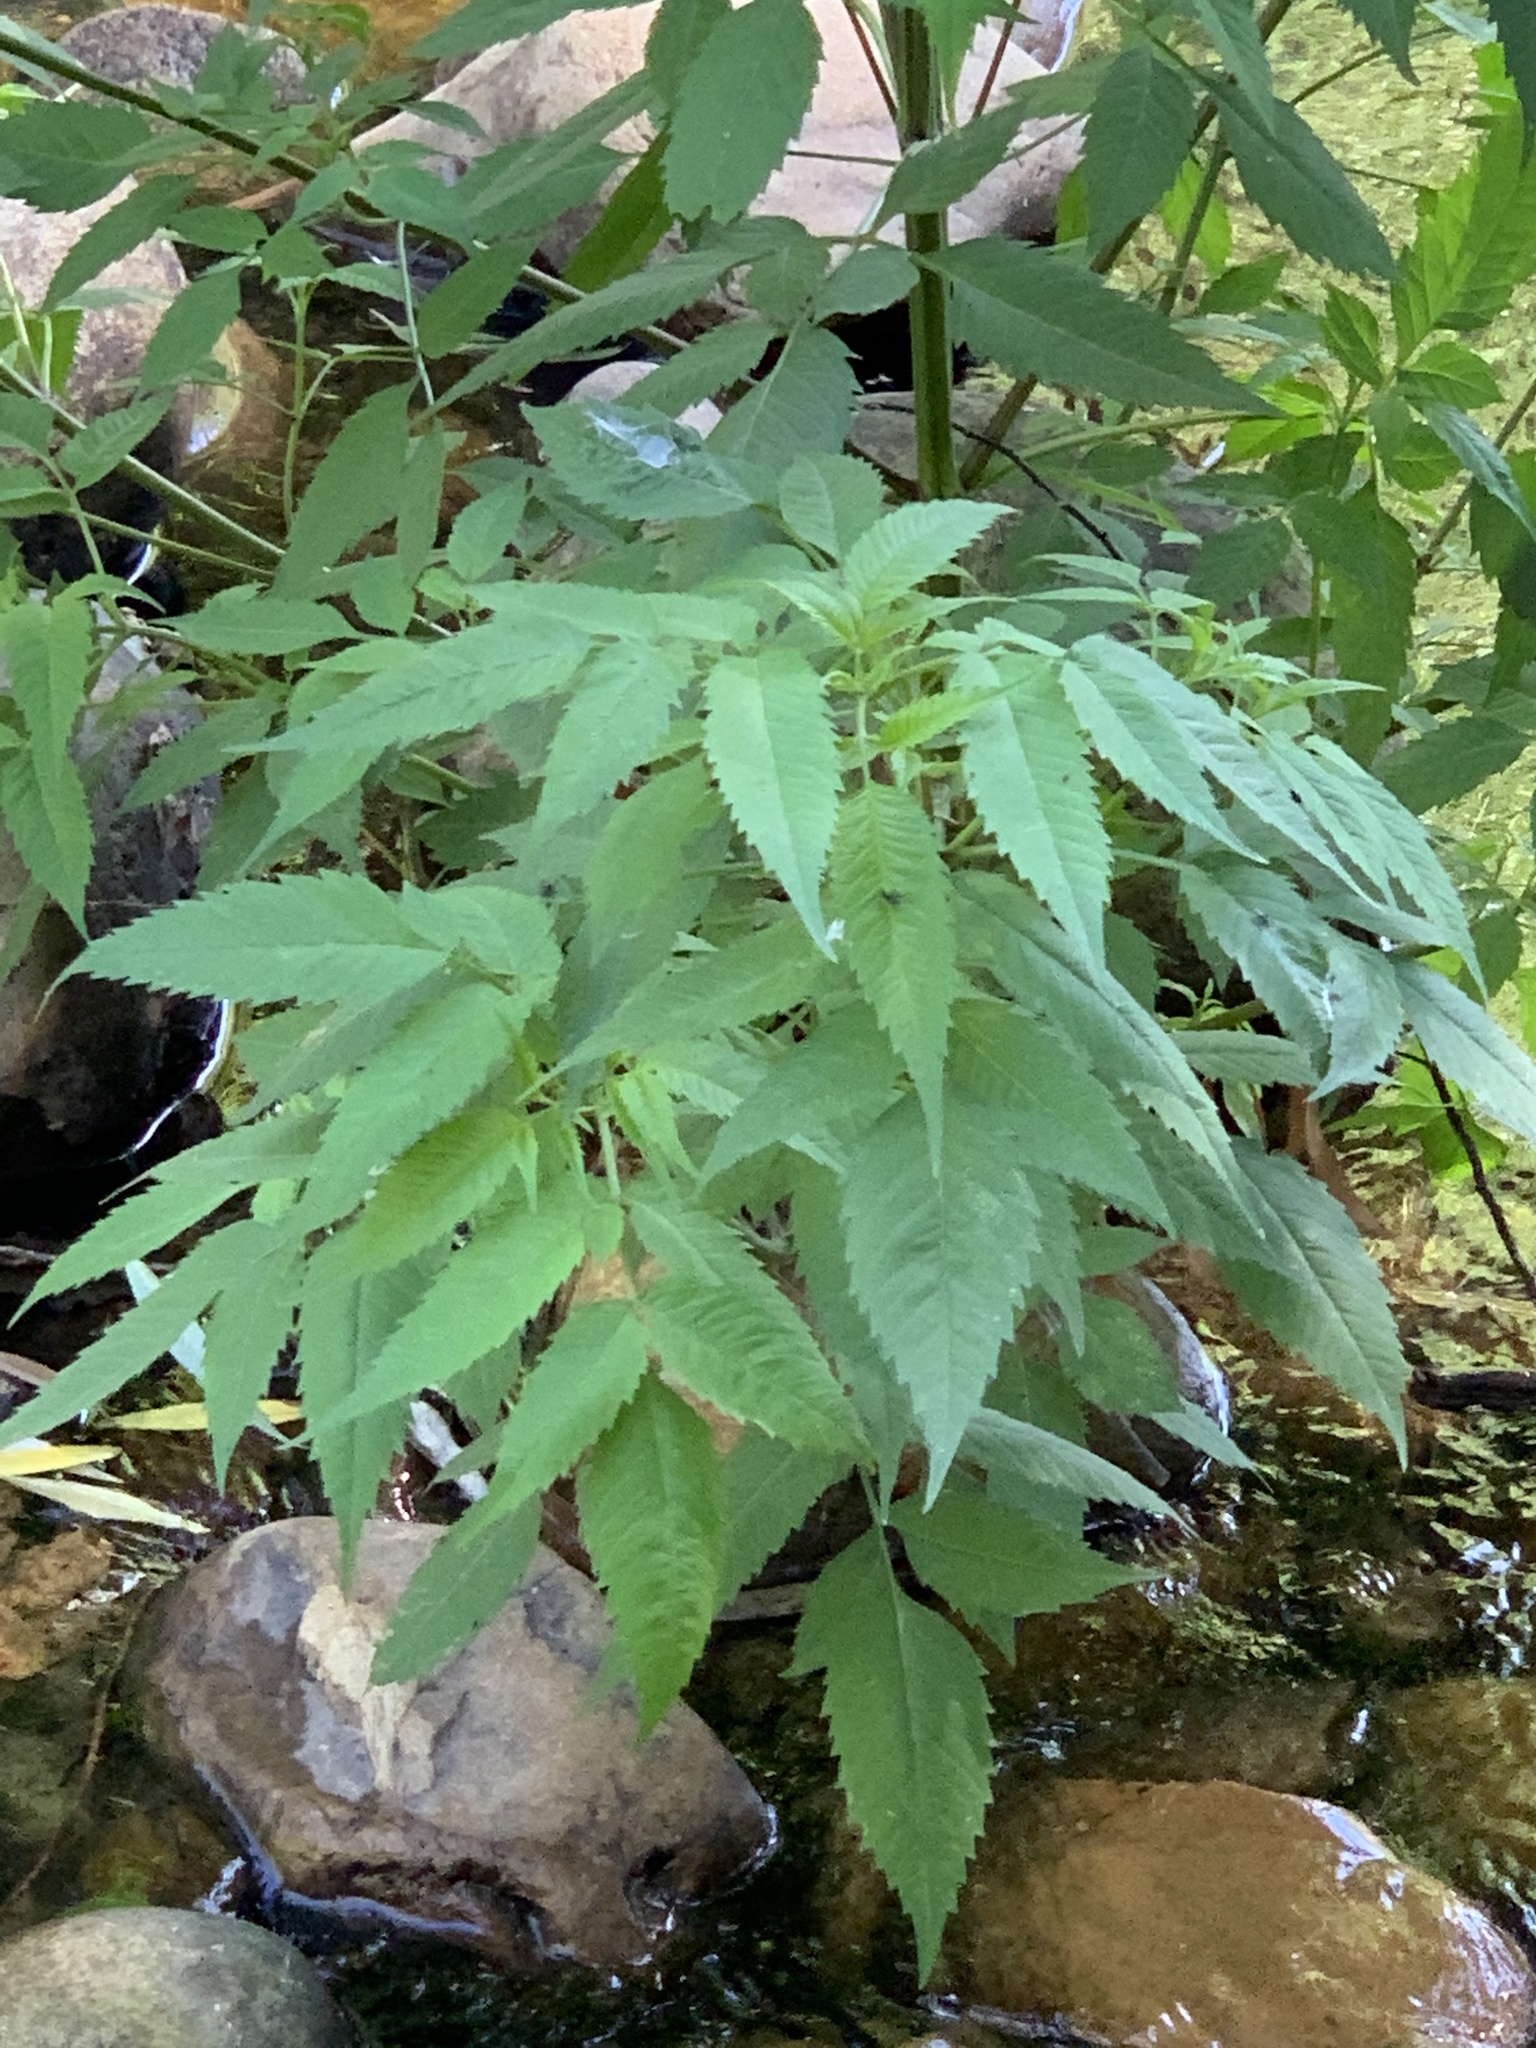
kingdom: Plantae
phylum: Tracheophyta
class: Magnoliopsida
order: Asterales
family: Asteraceae
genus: Bidens
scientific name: Bidens frondosa
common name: Beggarticks
